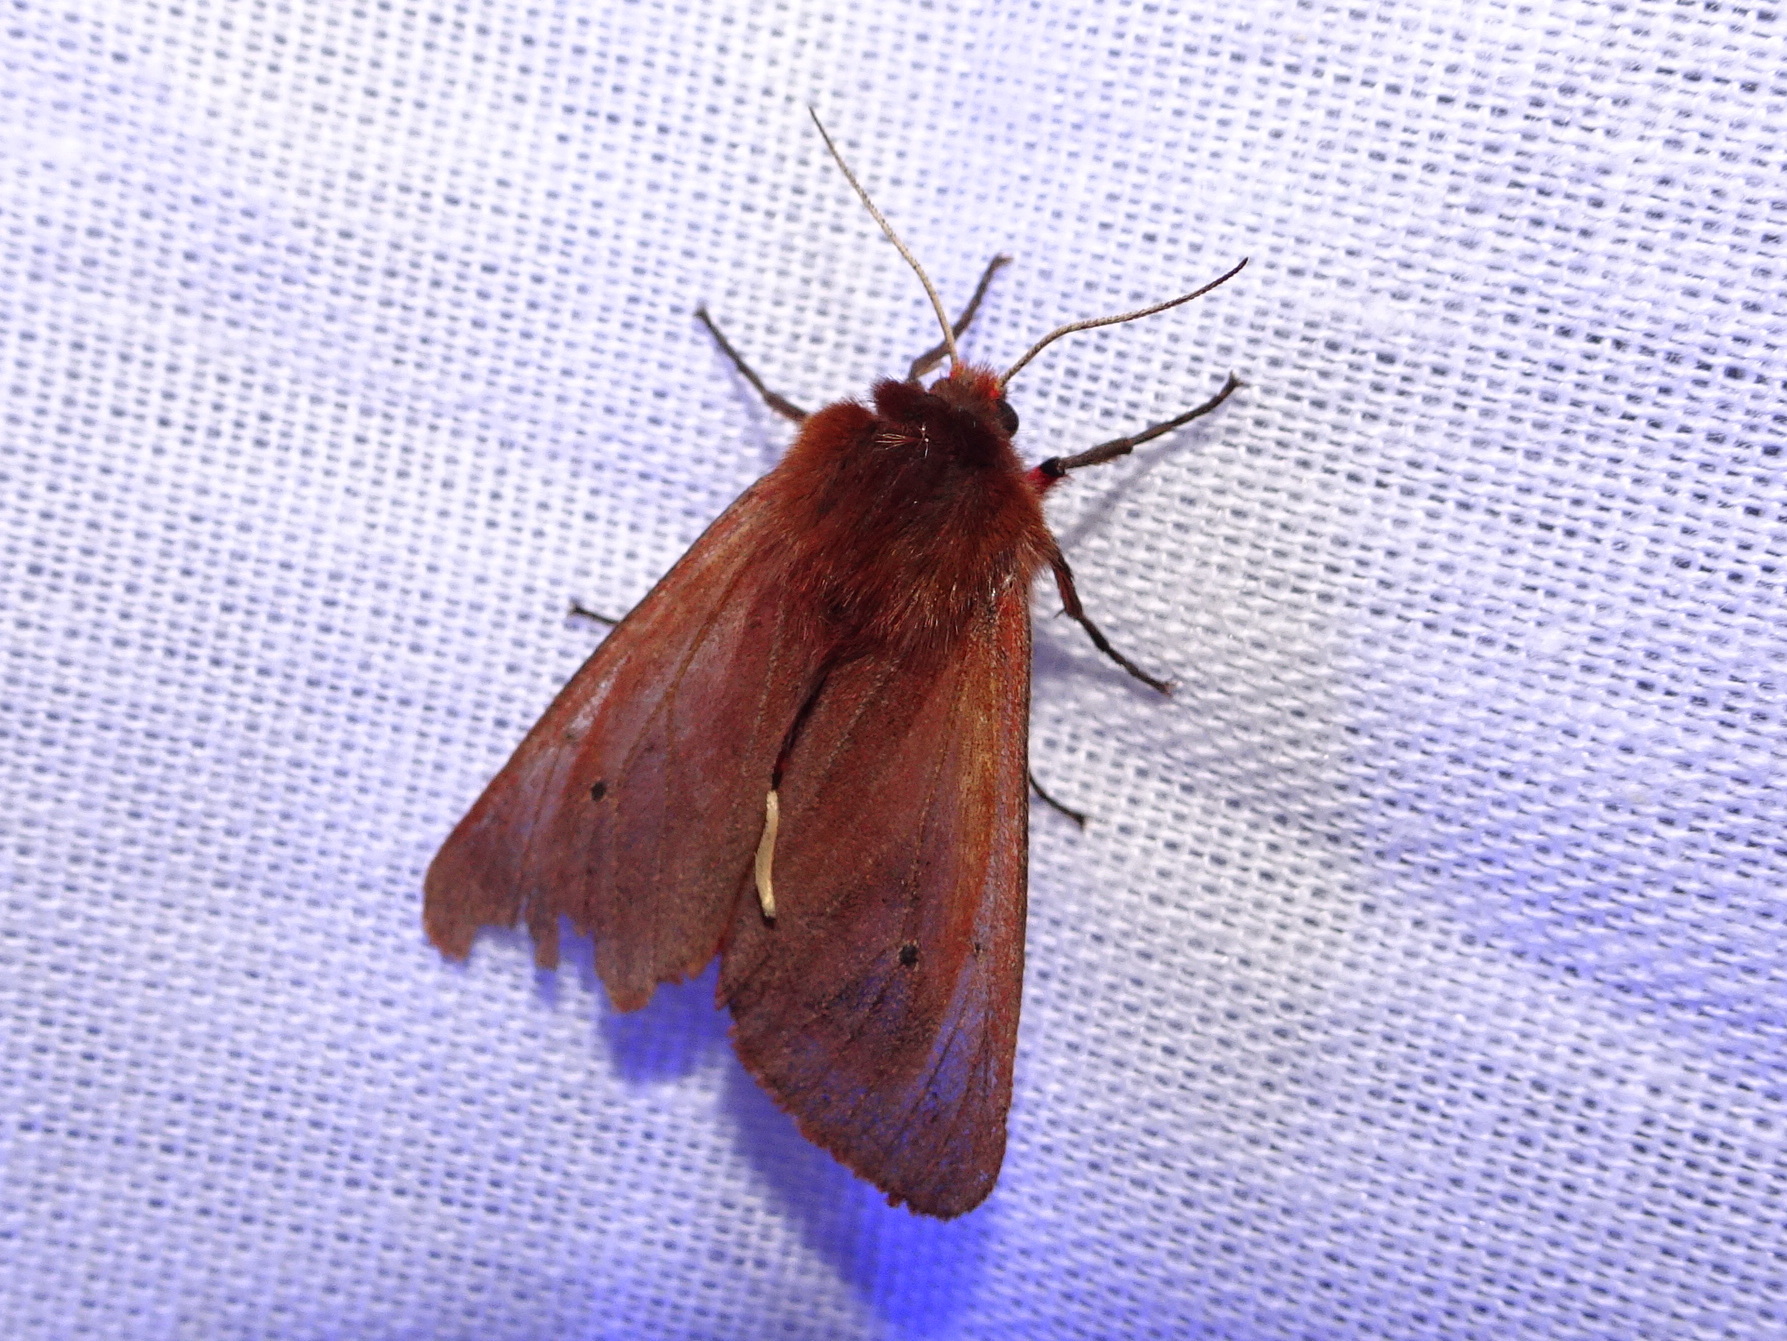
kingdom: Animalia
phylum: Arthropoda
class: Insecta
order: Lepidoptera
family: Erebidae
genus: Phragmatobia
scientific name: Phragmatobia fuliginosa
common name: Ruby tiger
